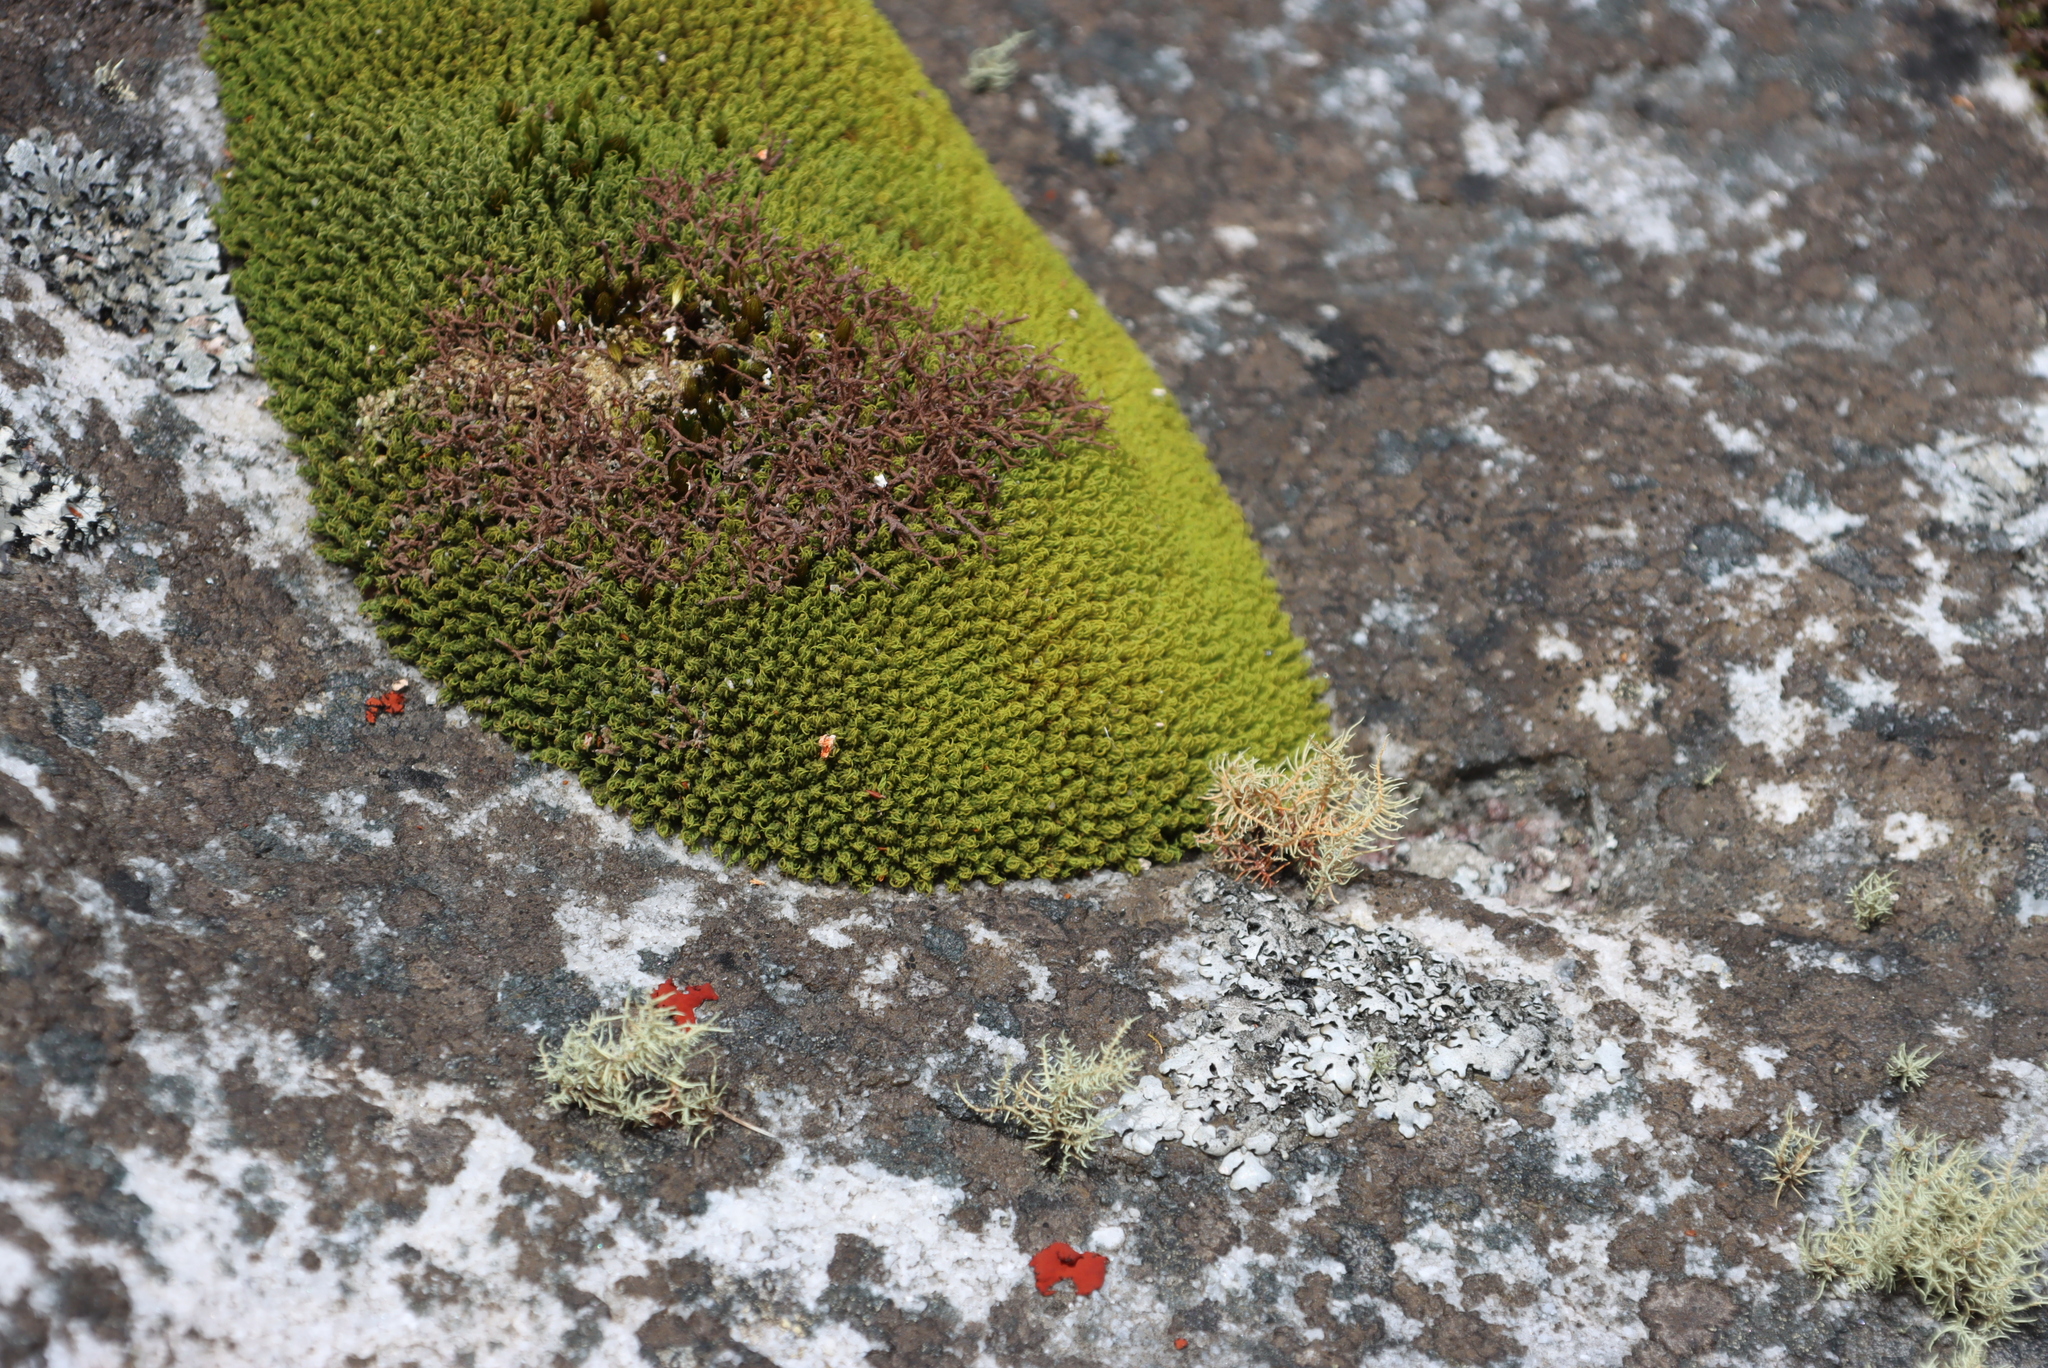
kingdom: Plantae
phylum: Bryophyta
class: Bryopsida
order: Dicranales
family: Hypodontiaceae
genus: Hypodontium
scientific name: Hypodontium pomiforme
